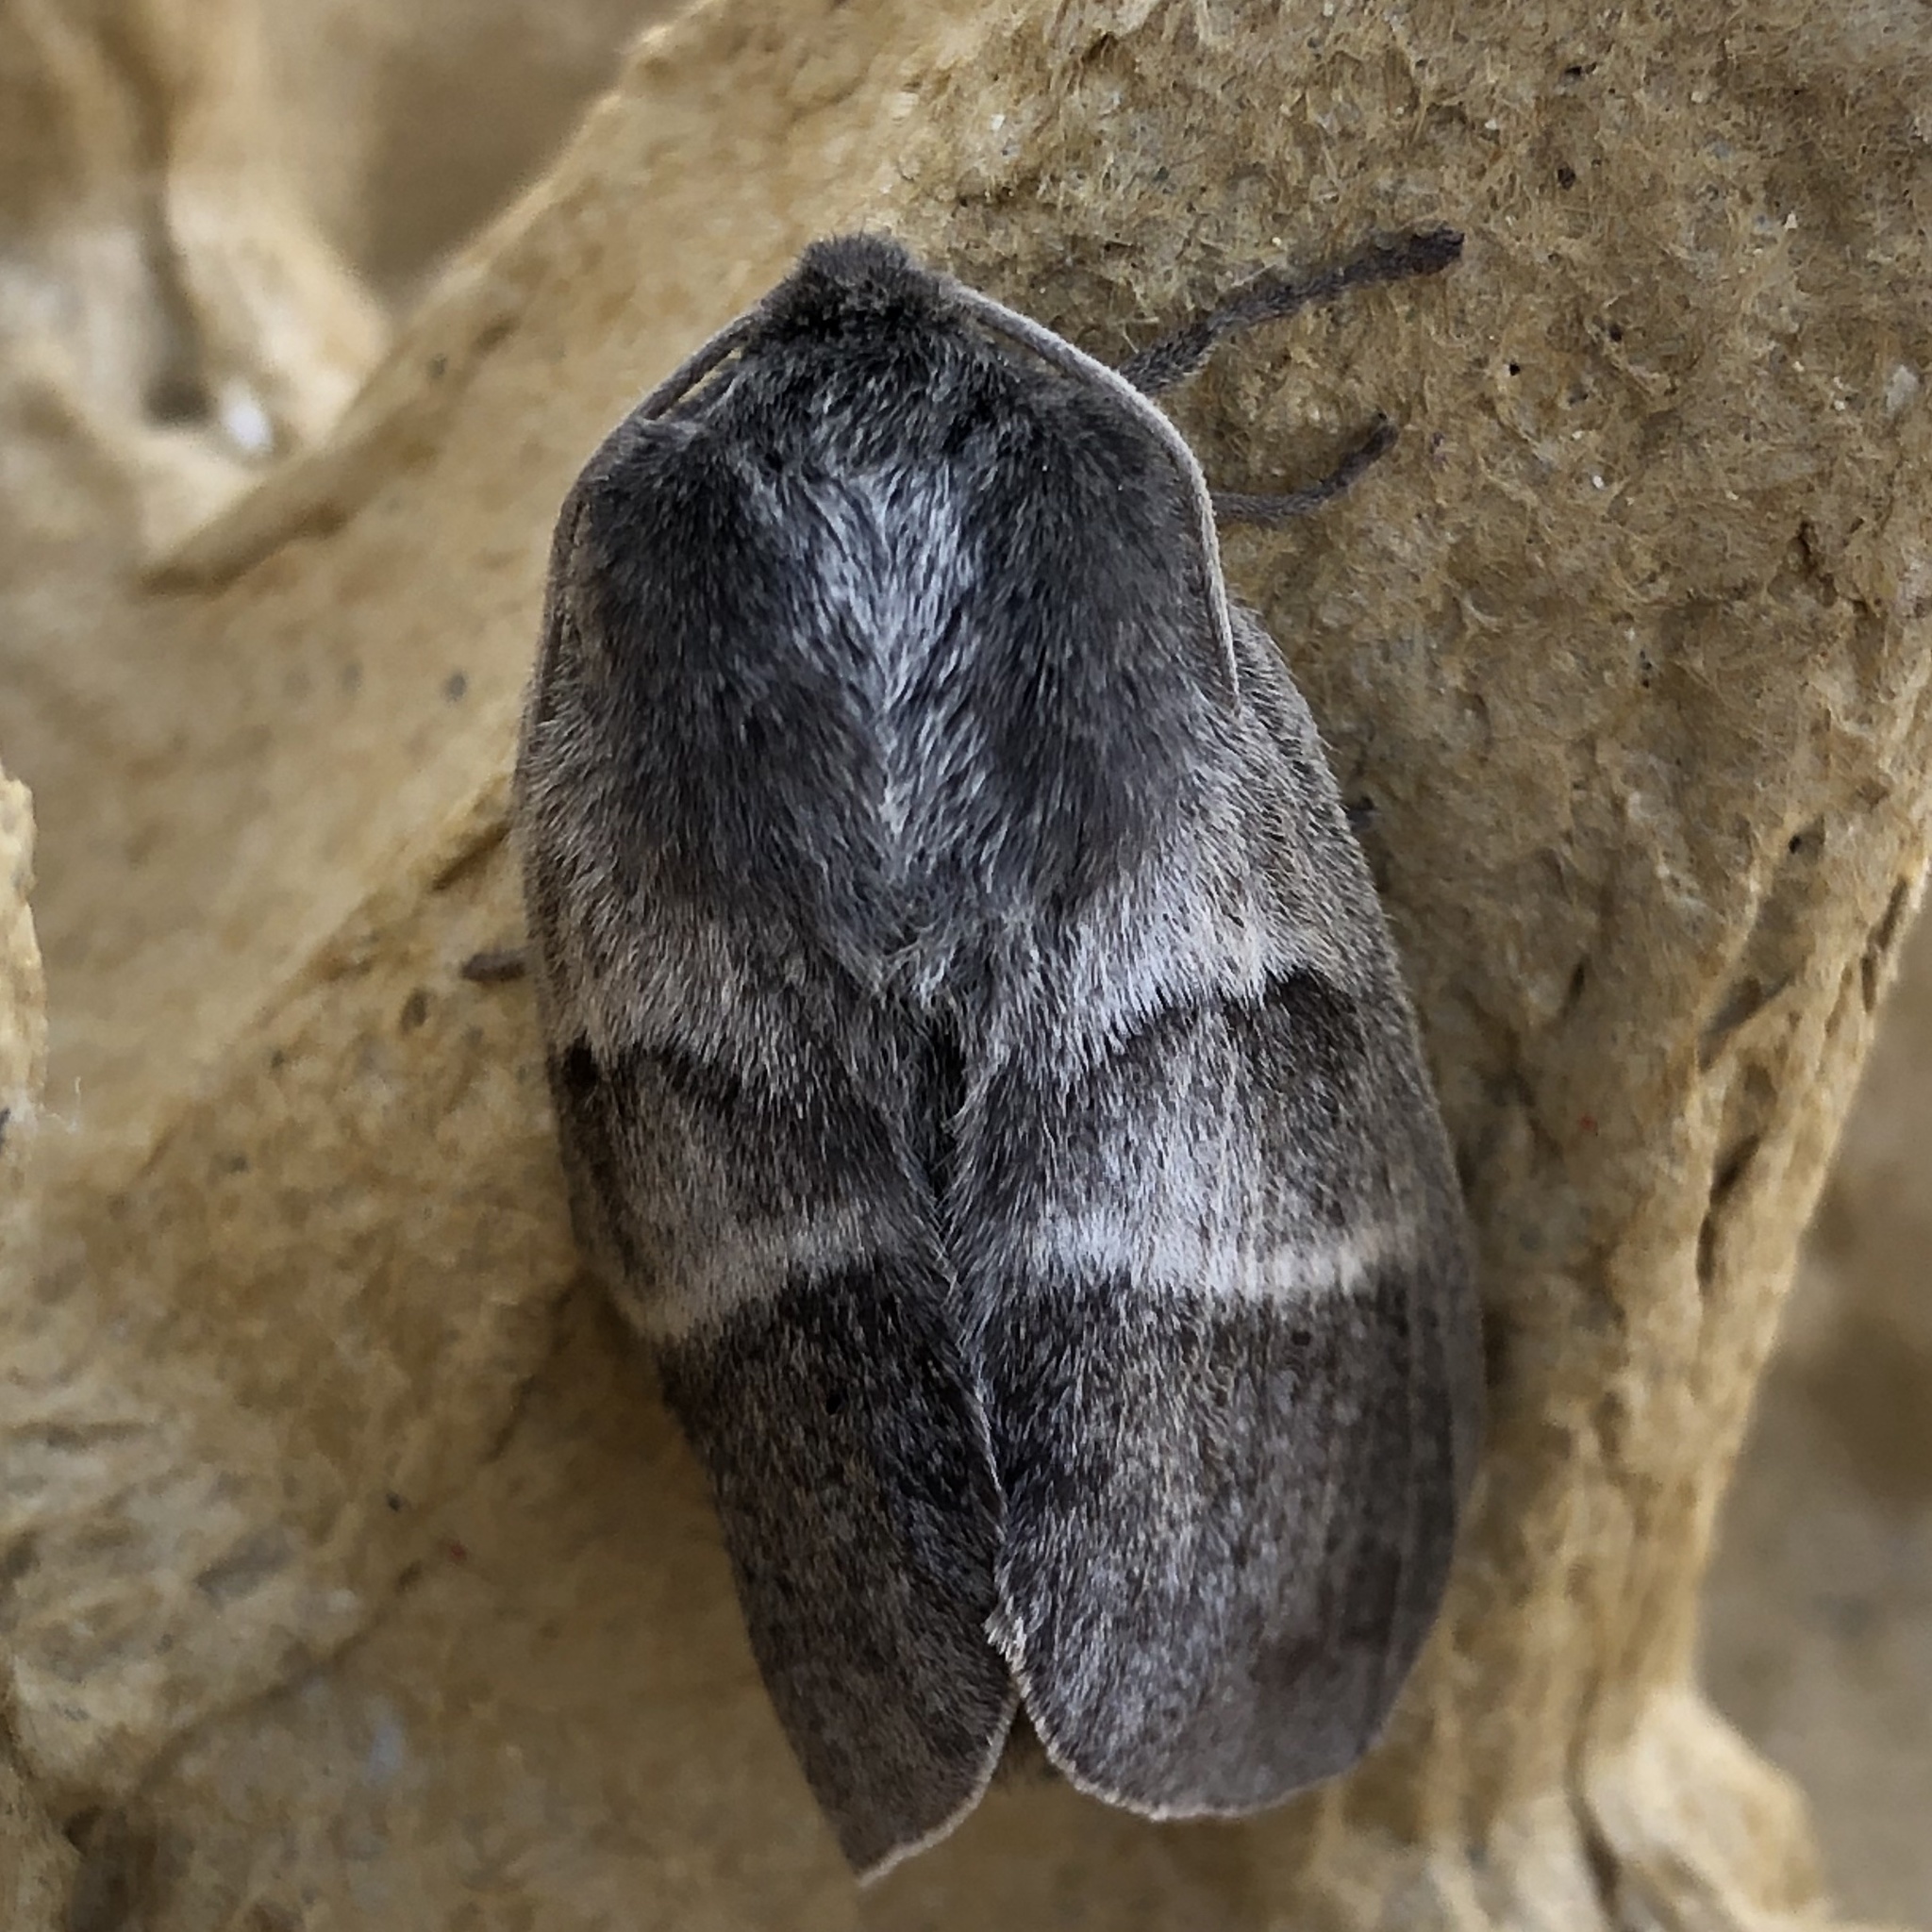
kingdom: Animalia
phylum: Arthropoda
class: Insecta
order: Lepidoptera
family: Lasiocampidae
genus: Macrothylacia
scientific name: Macrothylacia rubi
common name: Fox moth
